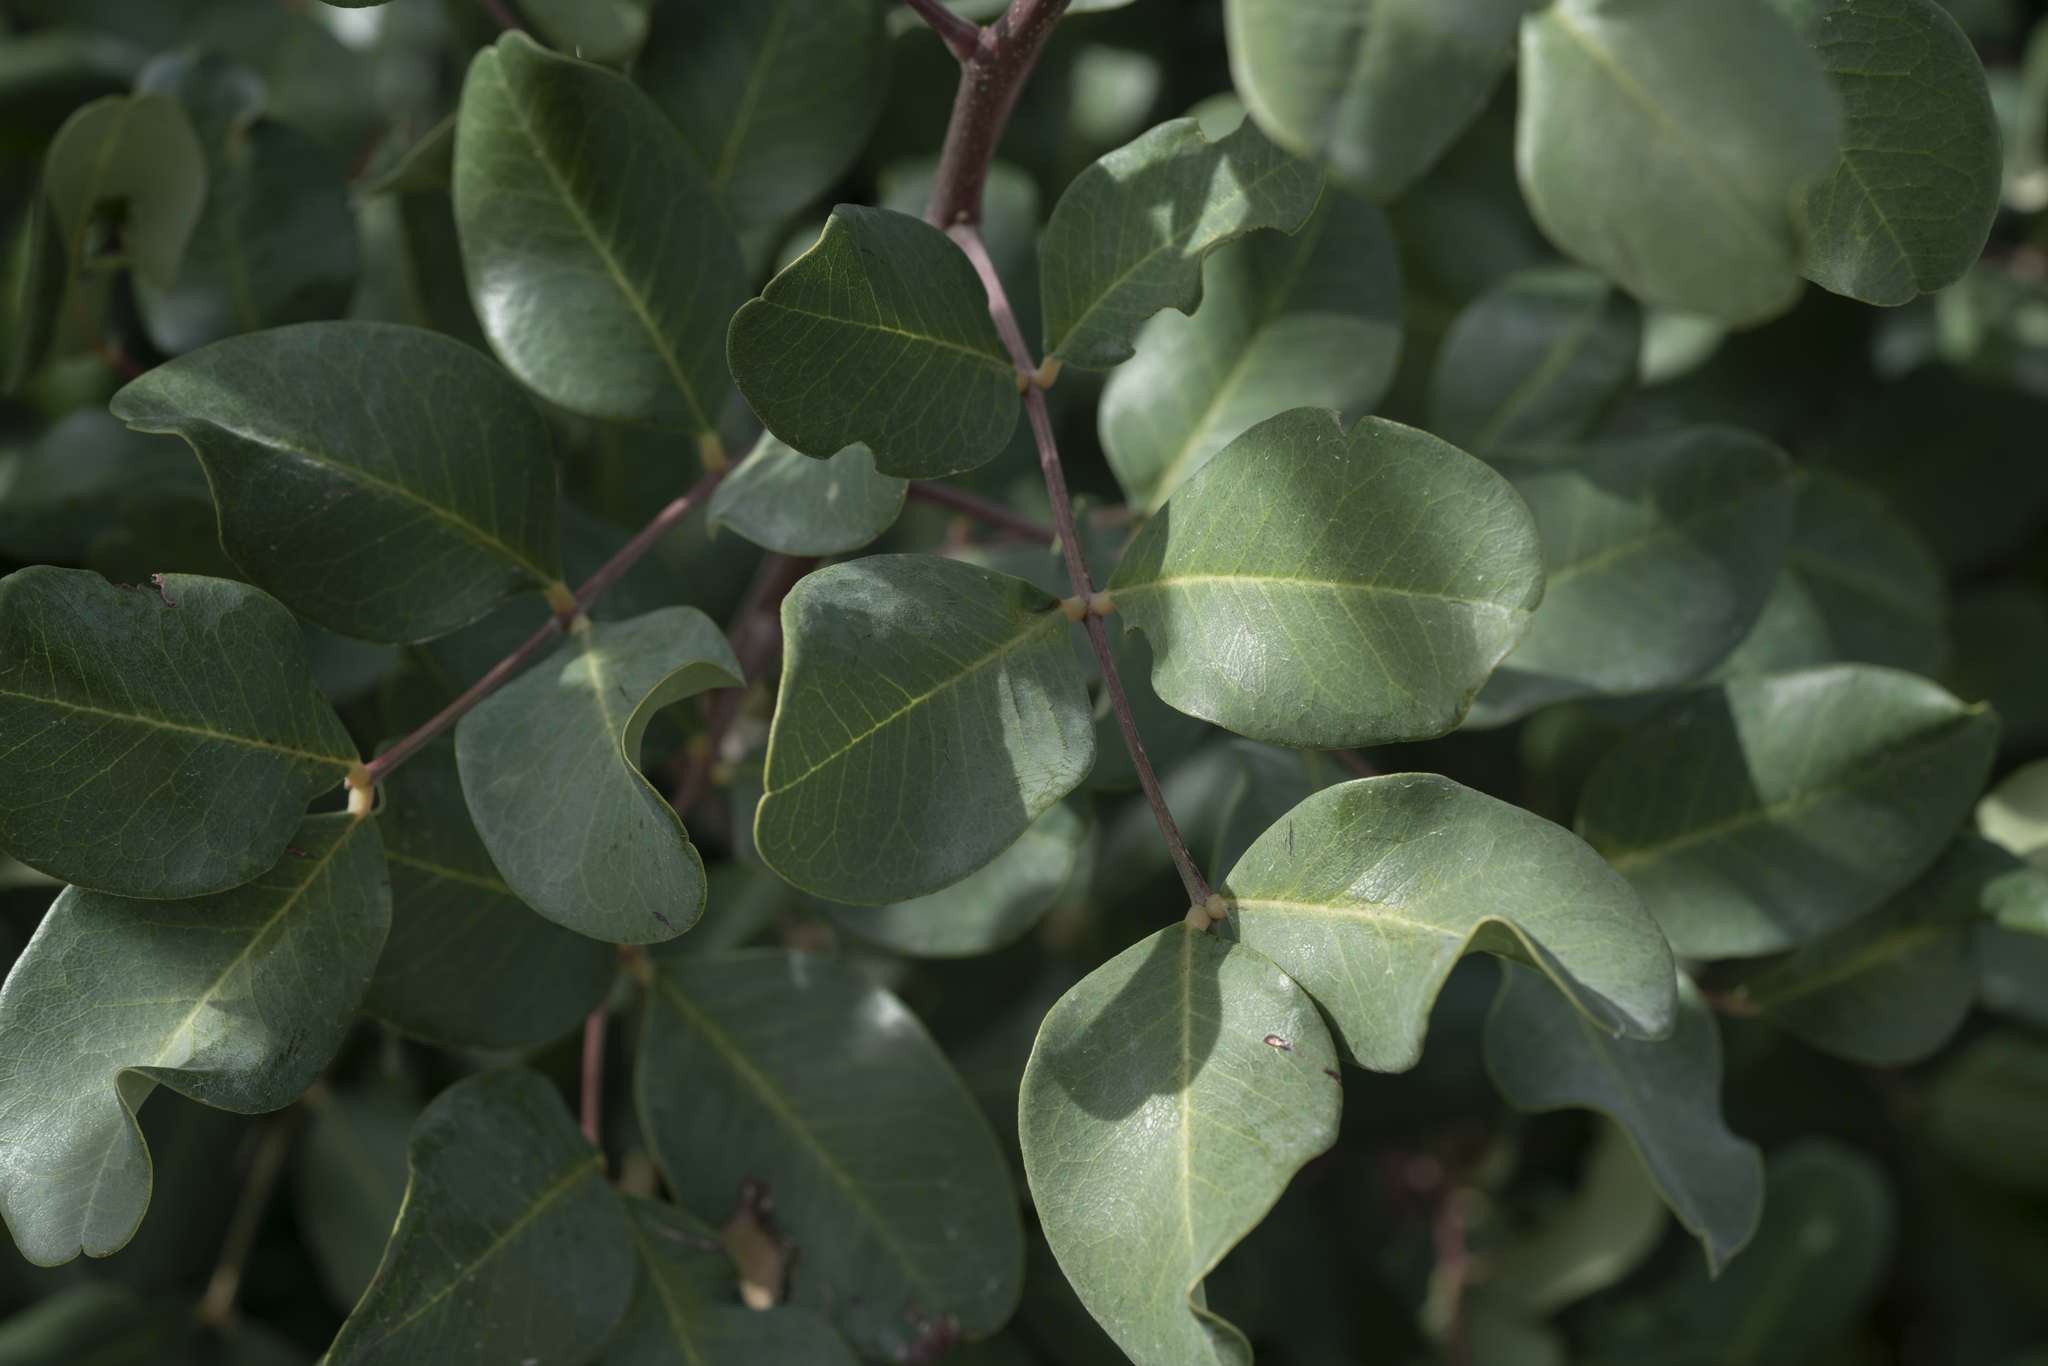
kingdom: Plantae
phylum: Tracheophyta
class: Magnoliopsida
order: Fabales
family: Fabaceae
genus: Ceratonia
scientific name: Ceratonia siliqua
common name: Carob
